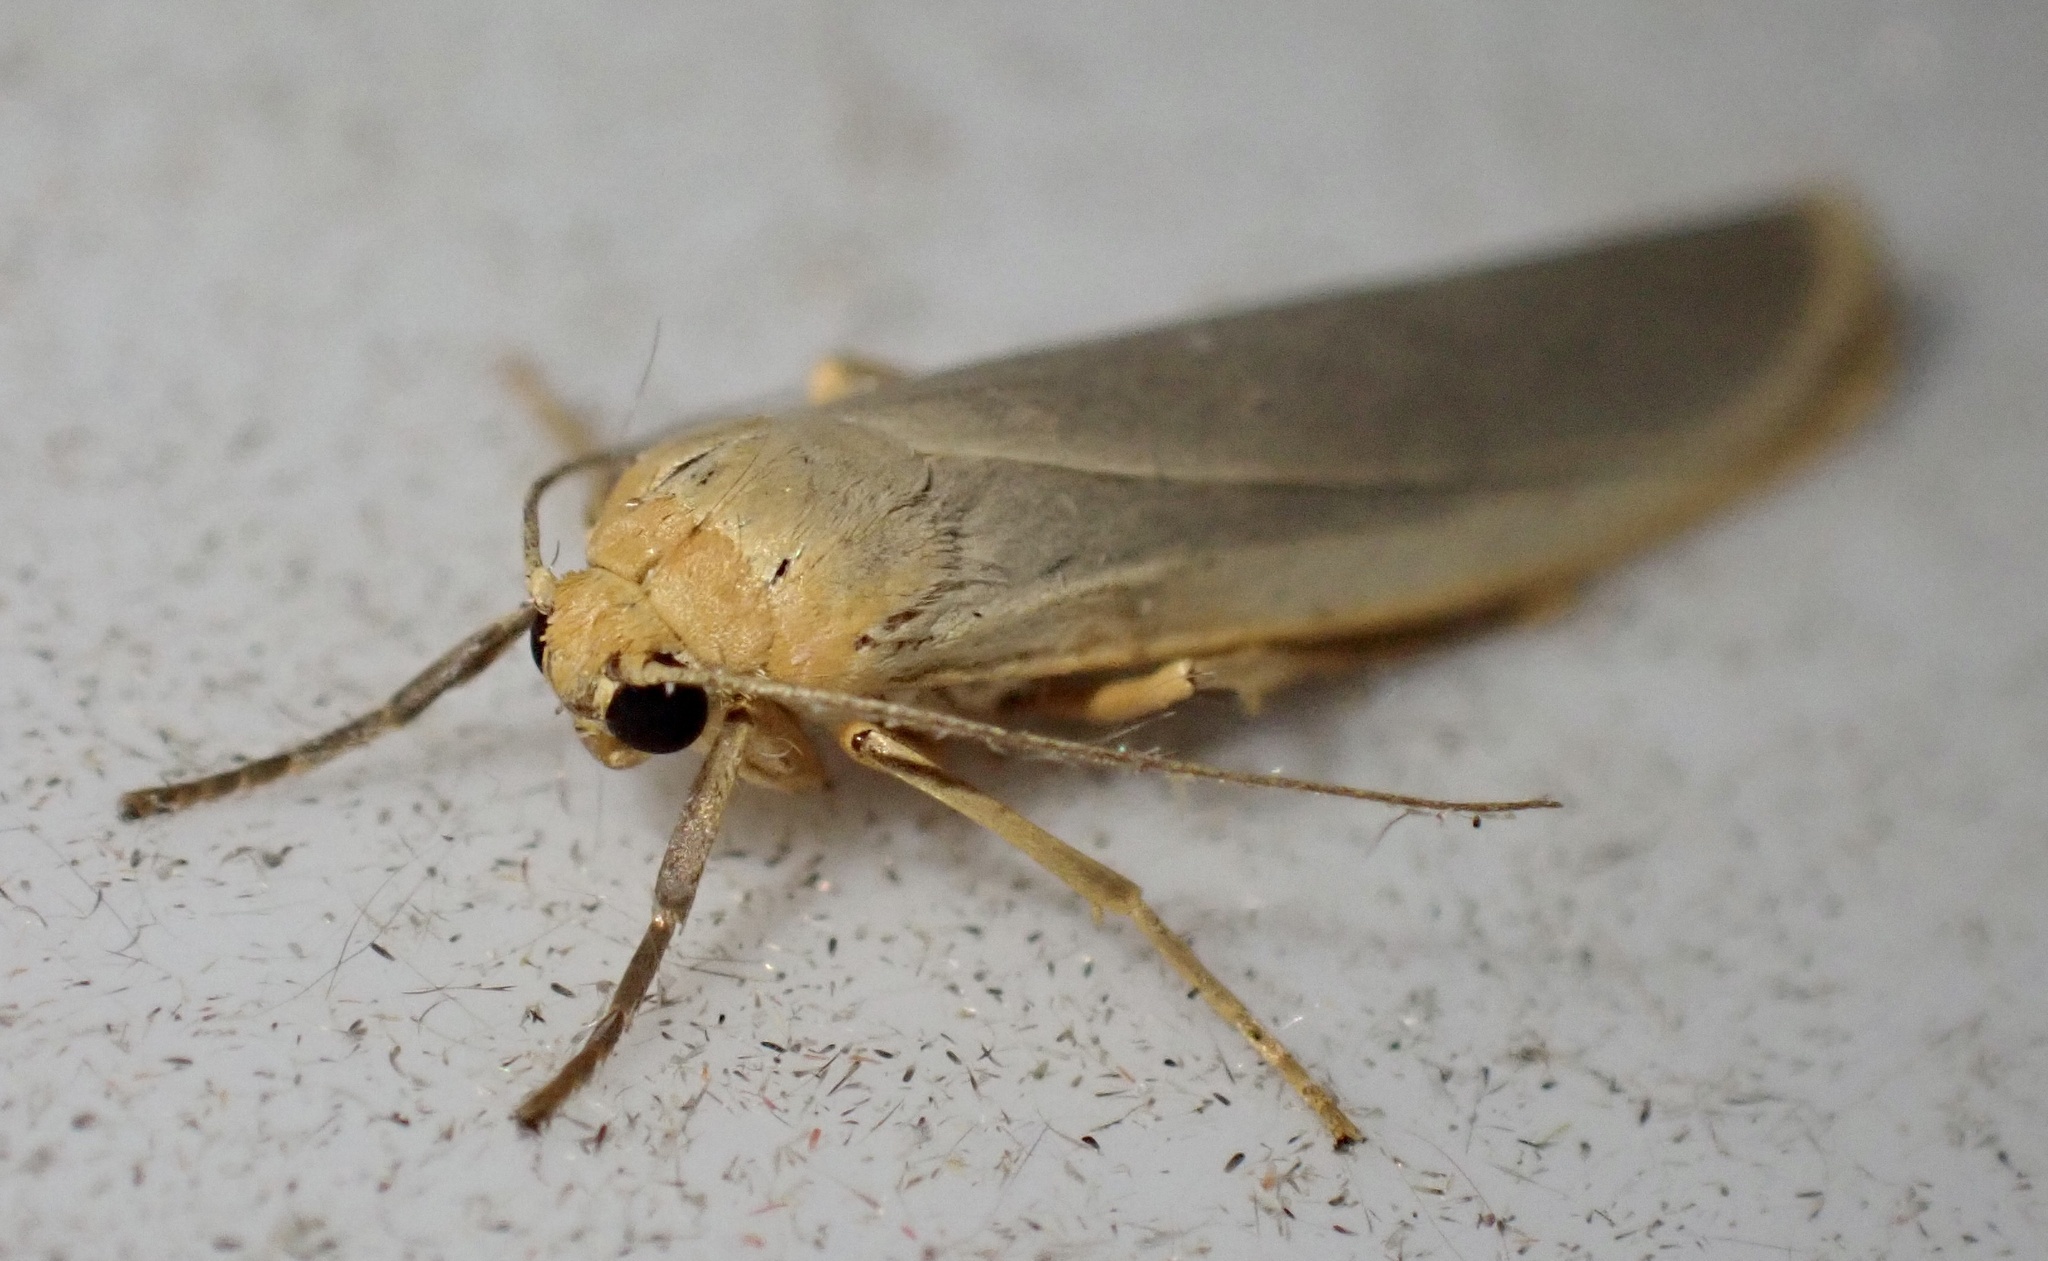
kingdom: Animalia
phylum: Arthropoda
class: Insecta
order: Lepidoptera
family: Erebidae
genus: Eilema
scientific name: Eilema caniola
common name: Hoary footman
